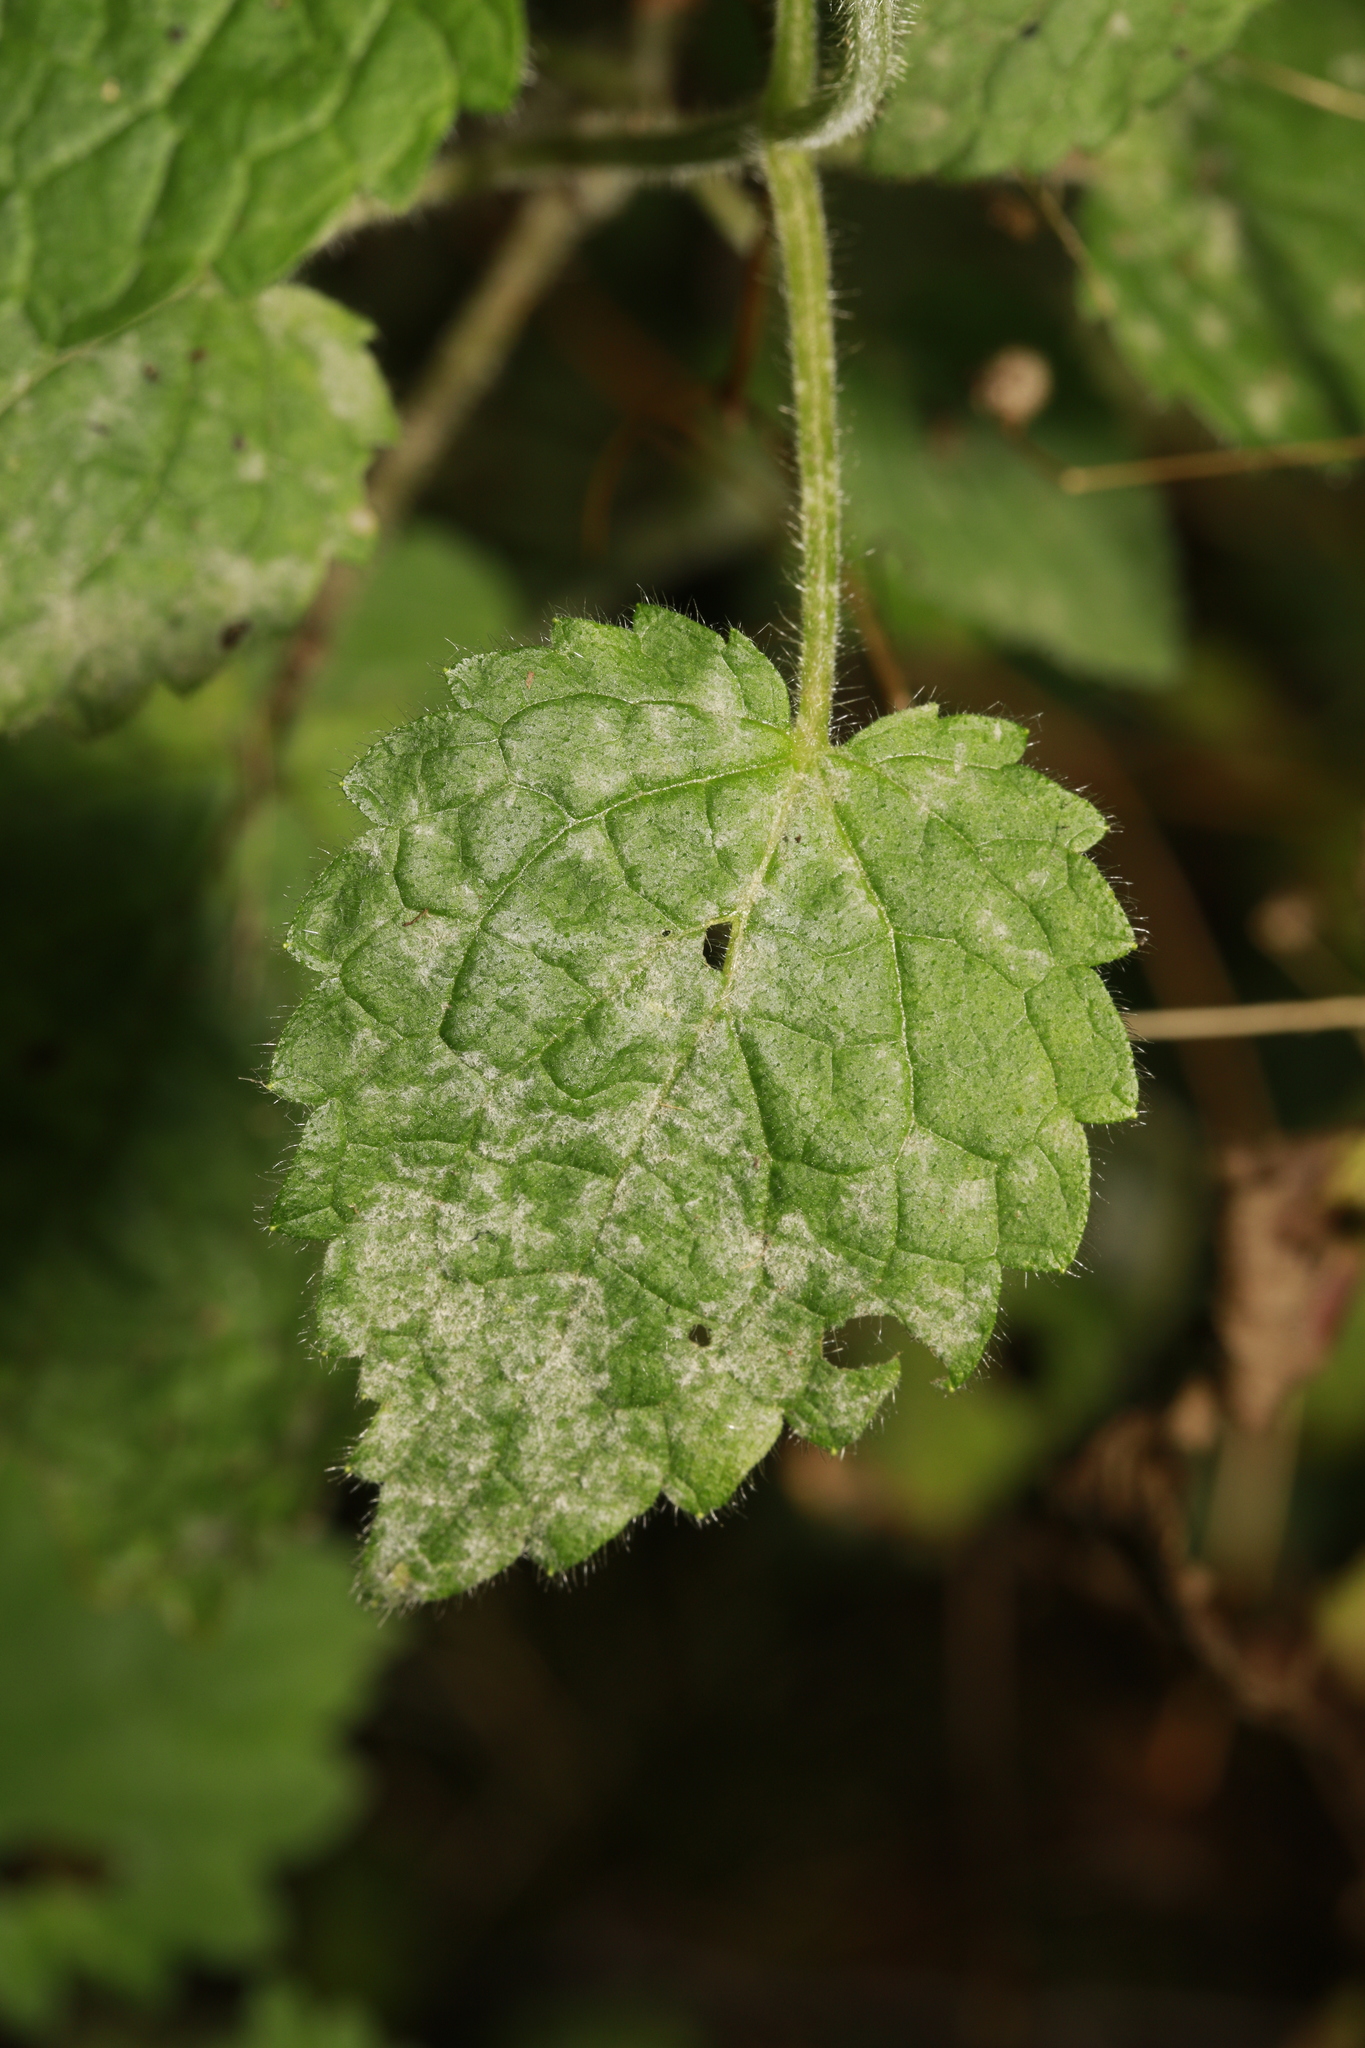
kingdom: Fungi
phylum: Ascomycota
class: Leotiomycetes
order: Helotiales
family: Erysiphaceae
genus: Neoerysiphe
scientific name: Neoerysiphe galeopsidis
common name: Mint mildew
